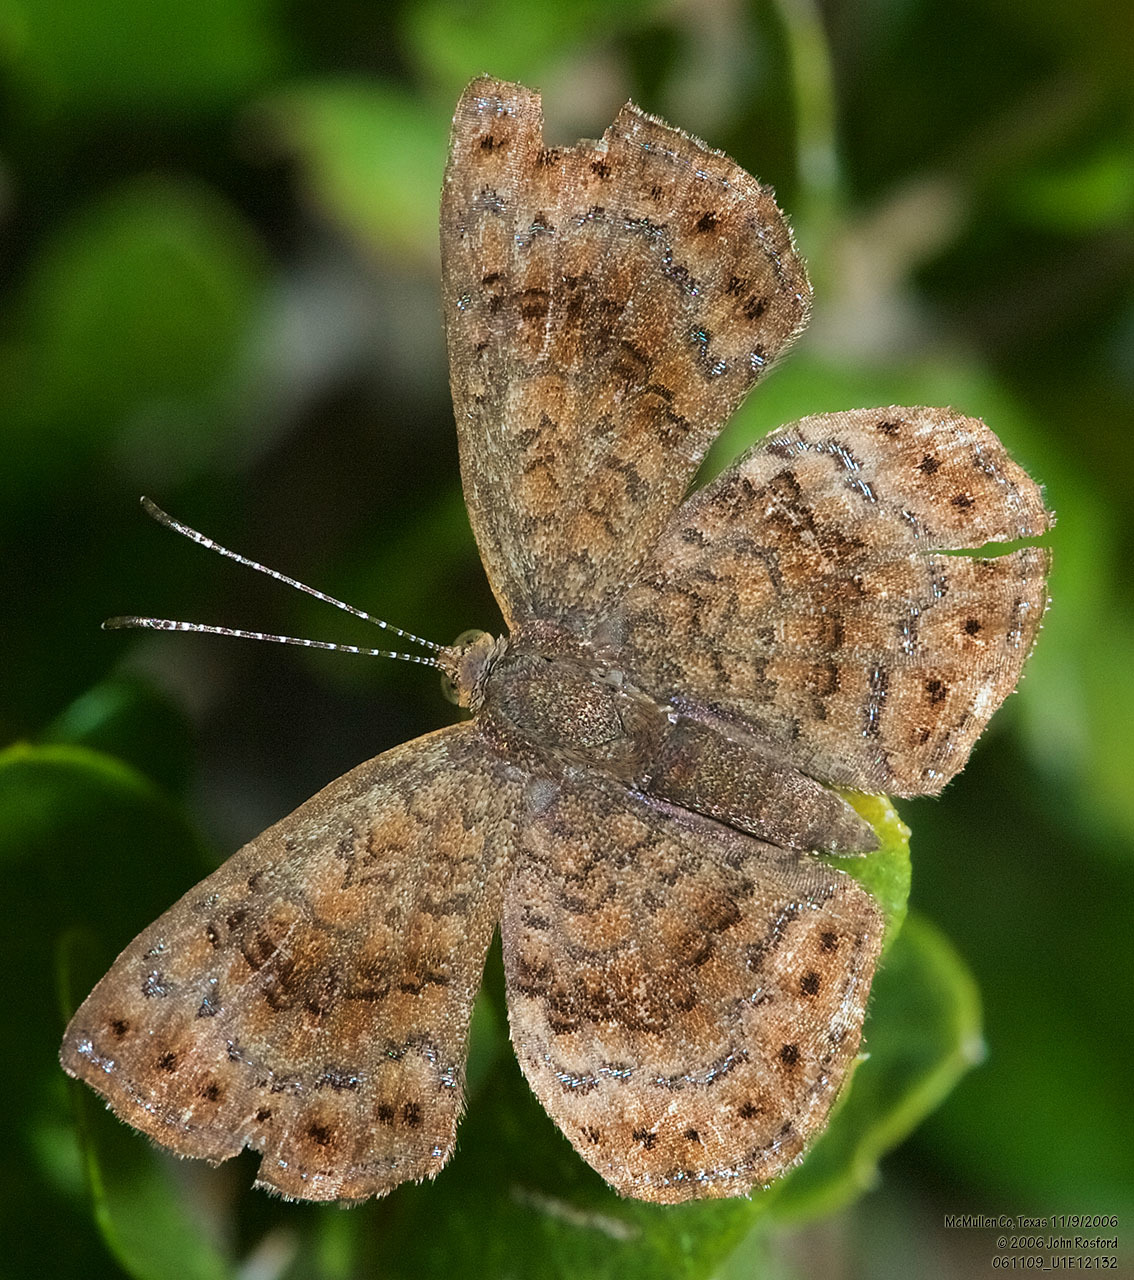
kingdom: Animalia
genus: Calephelis
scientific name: Calephelis perditalis
